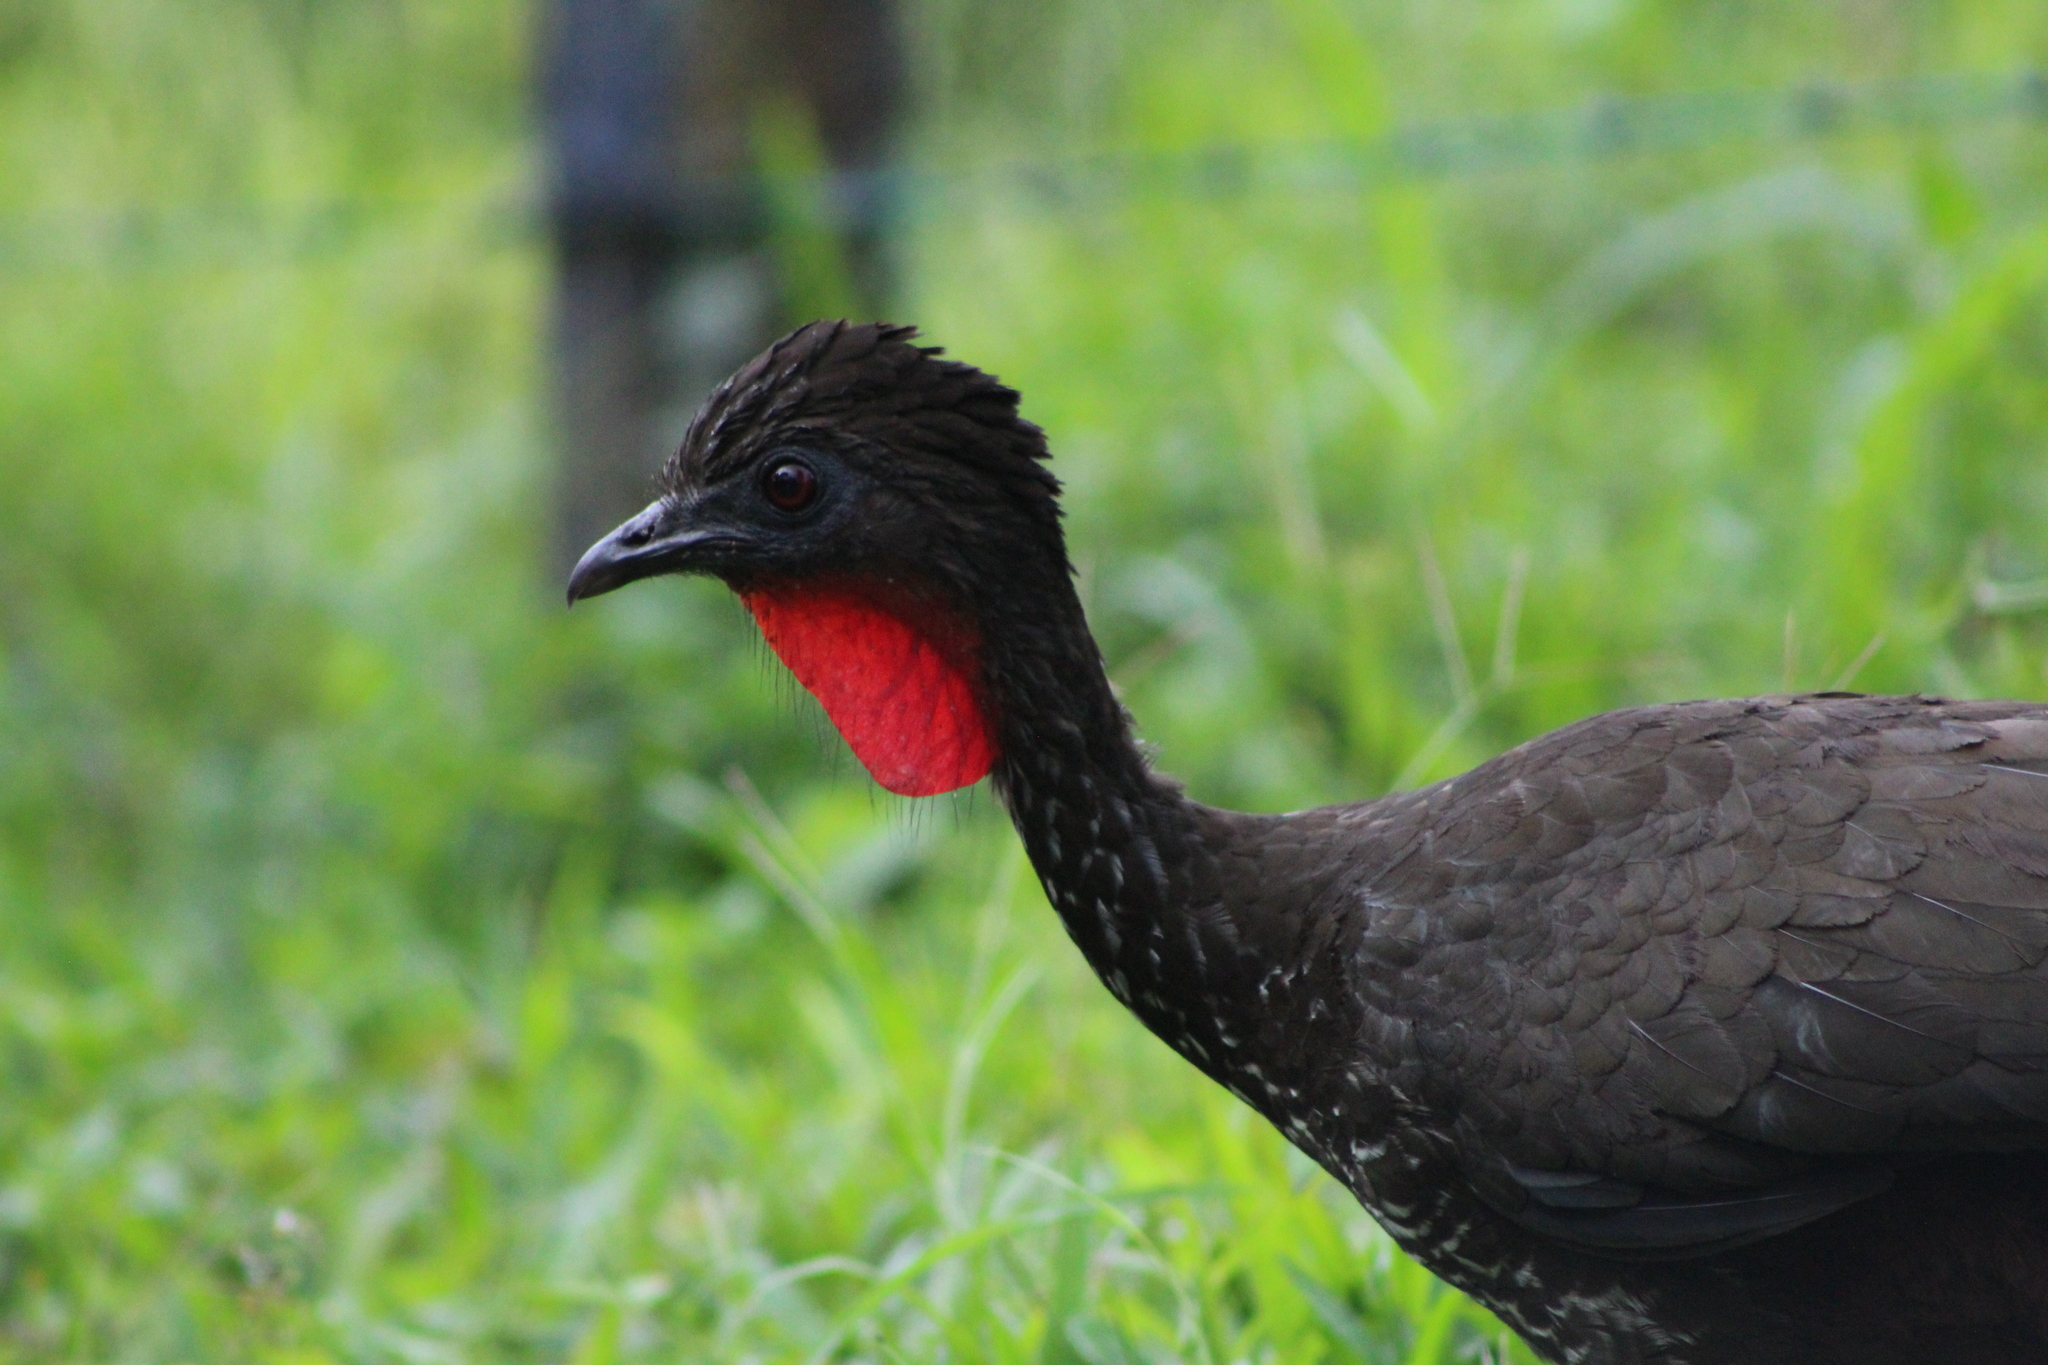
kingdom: Animalia
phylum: Chordata
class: Aves
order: Galliformes
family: Cracidae
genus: Penelope
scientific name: Penelope purpurascens
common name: Crested guan
